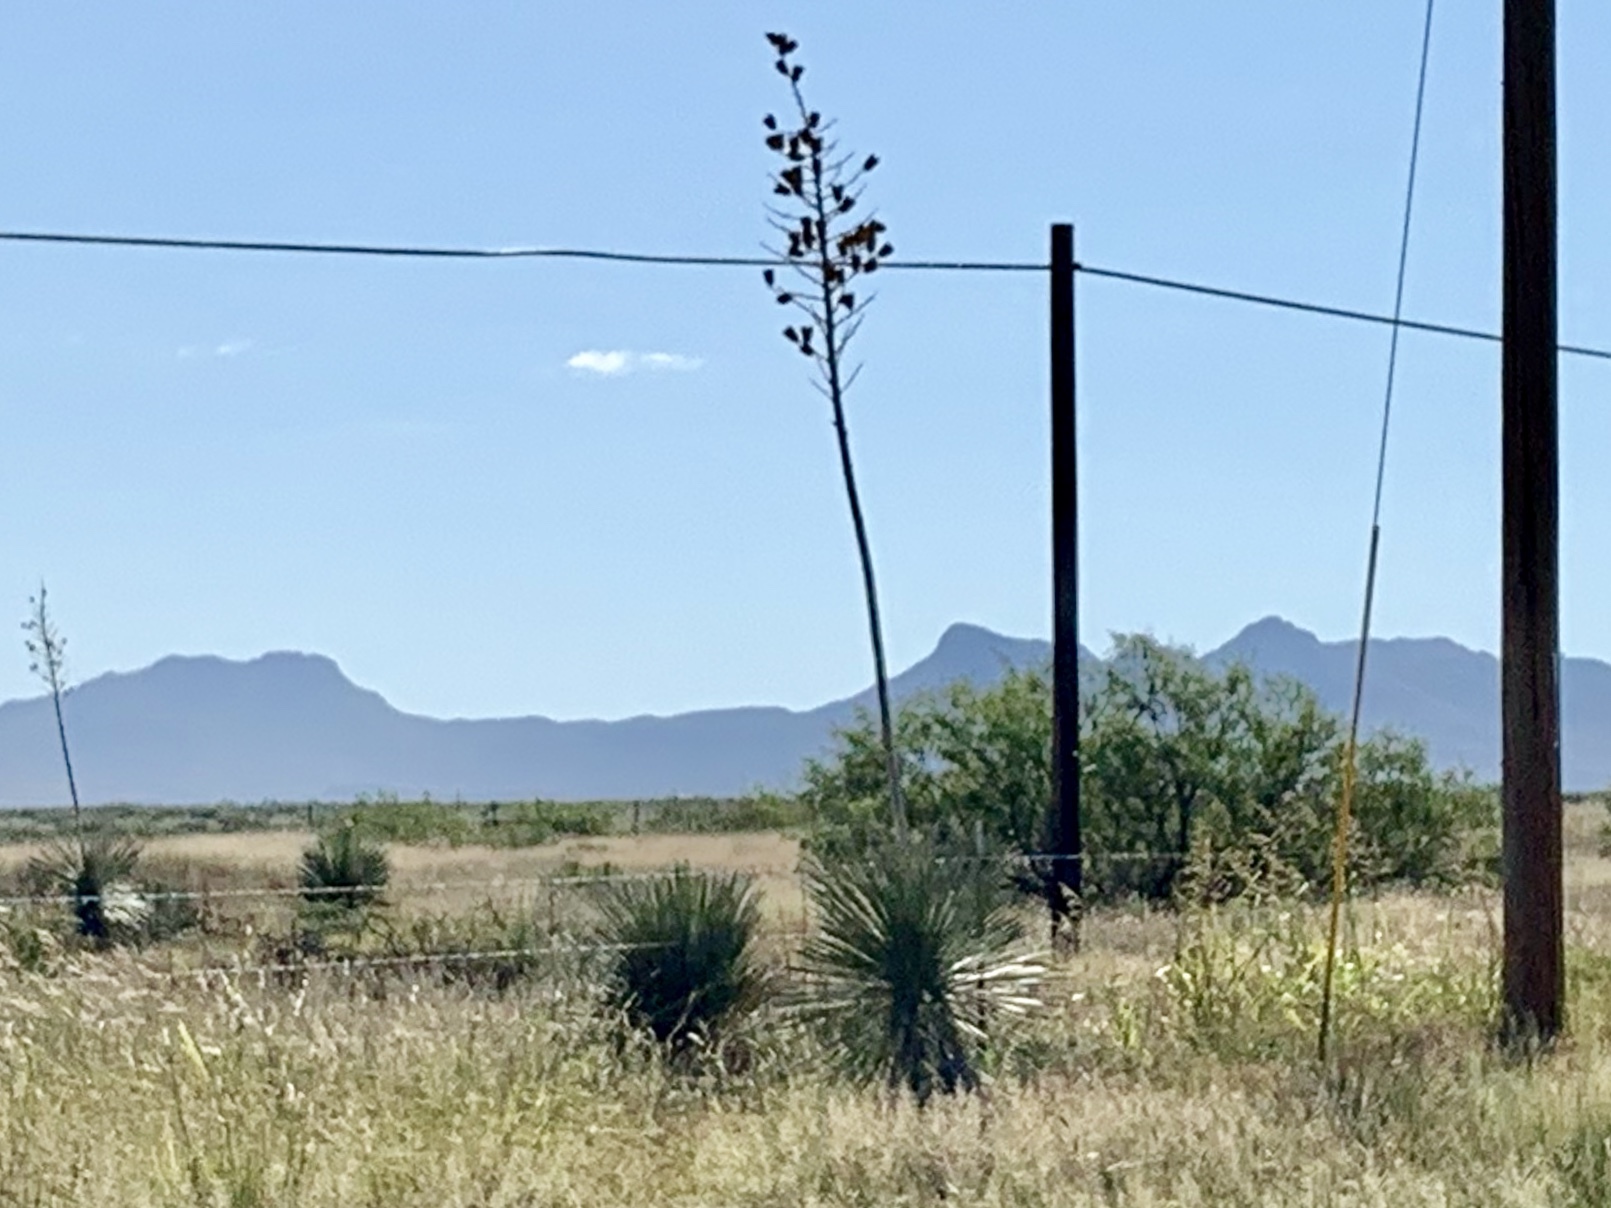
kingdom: Plantae
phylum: Tracheophyta
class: Liliopsida
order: Asparagales
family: Asparagaceae
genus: Yucca
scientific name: Yucca elata
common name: Palmella
